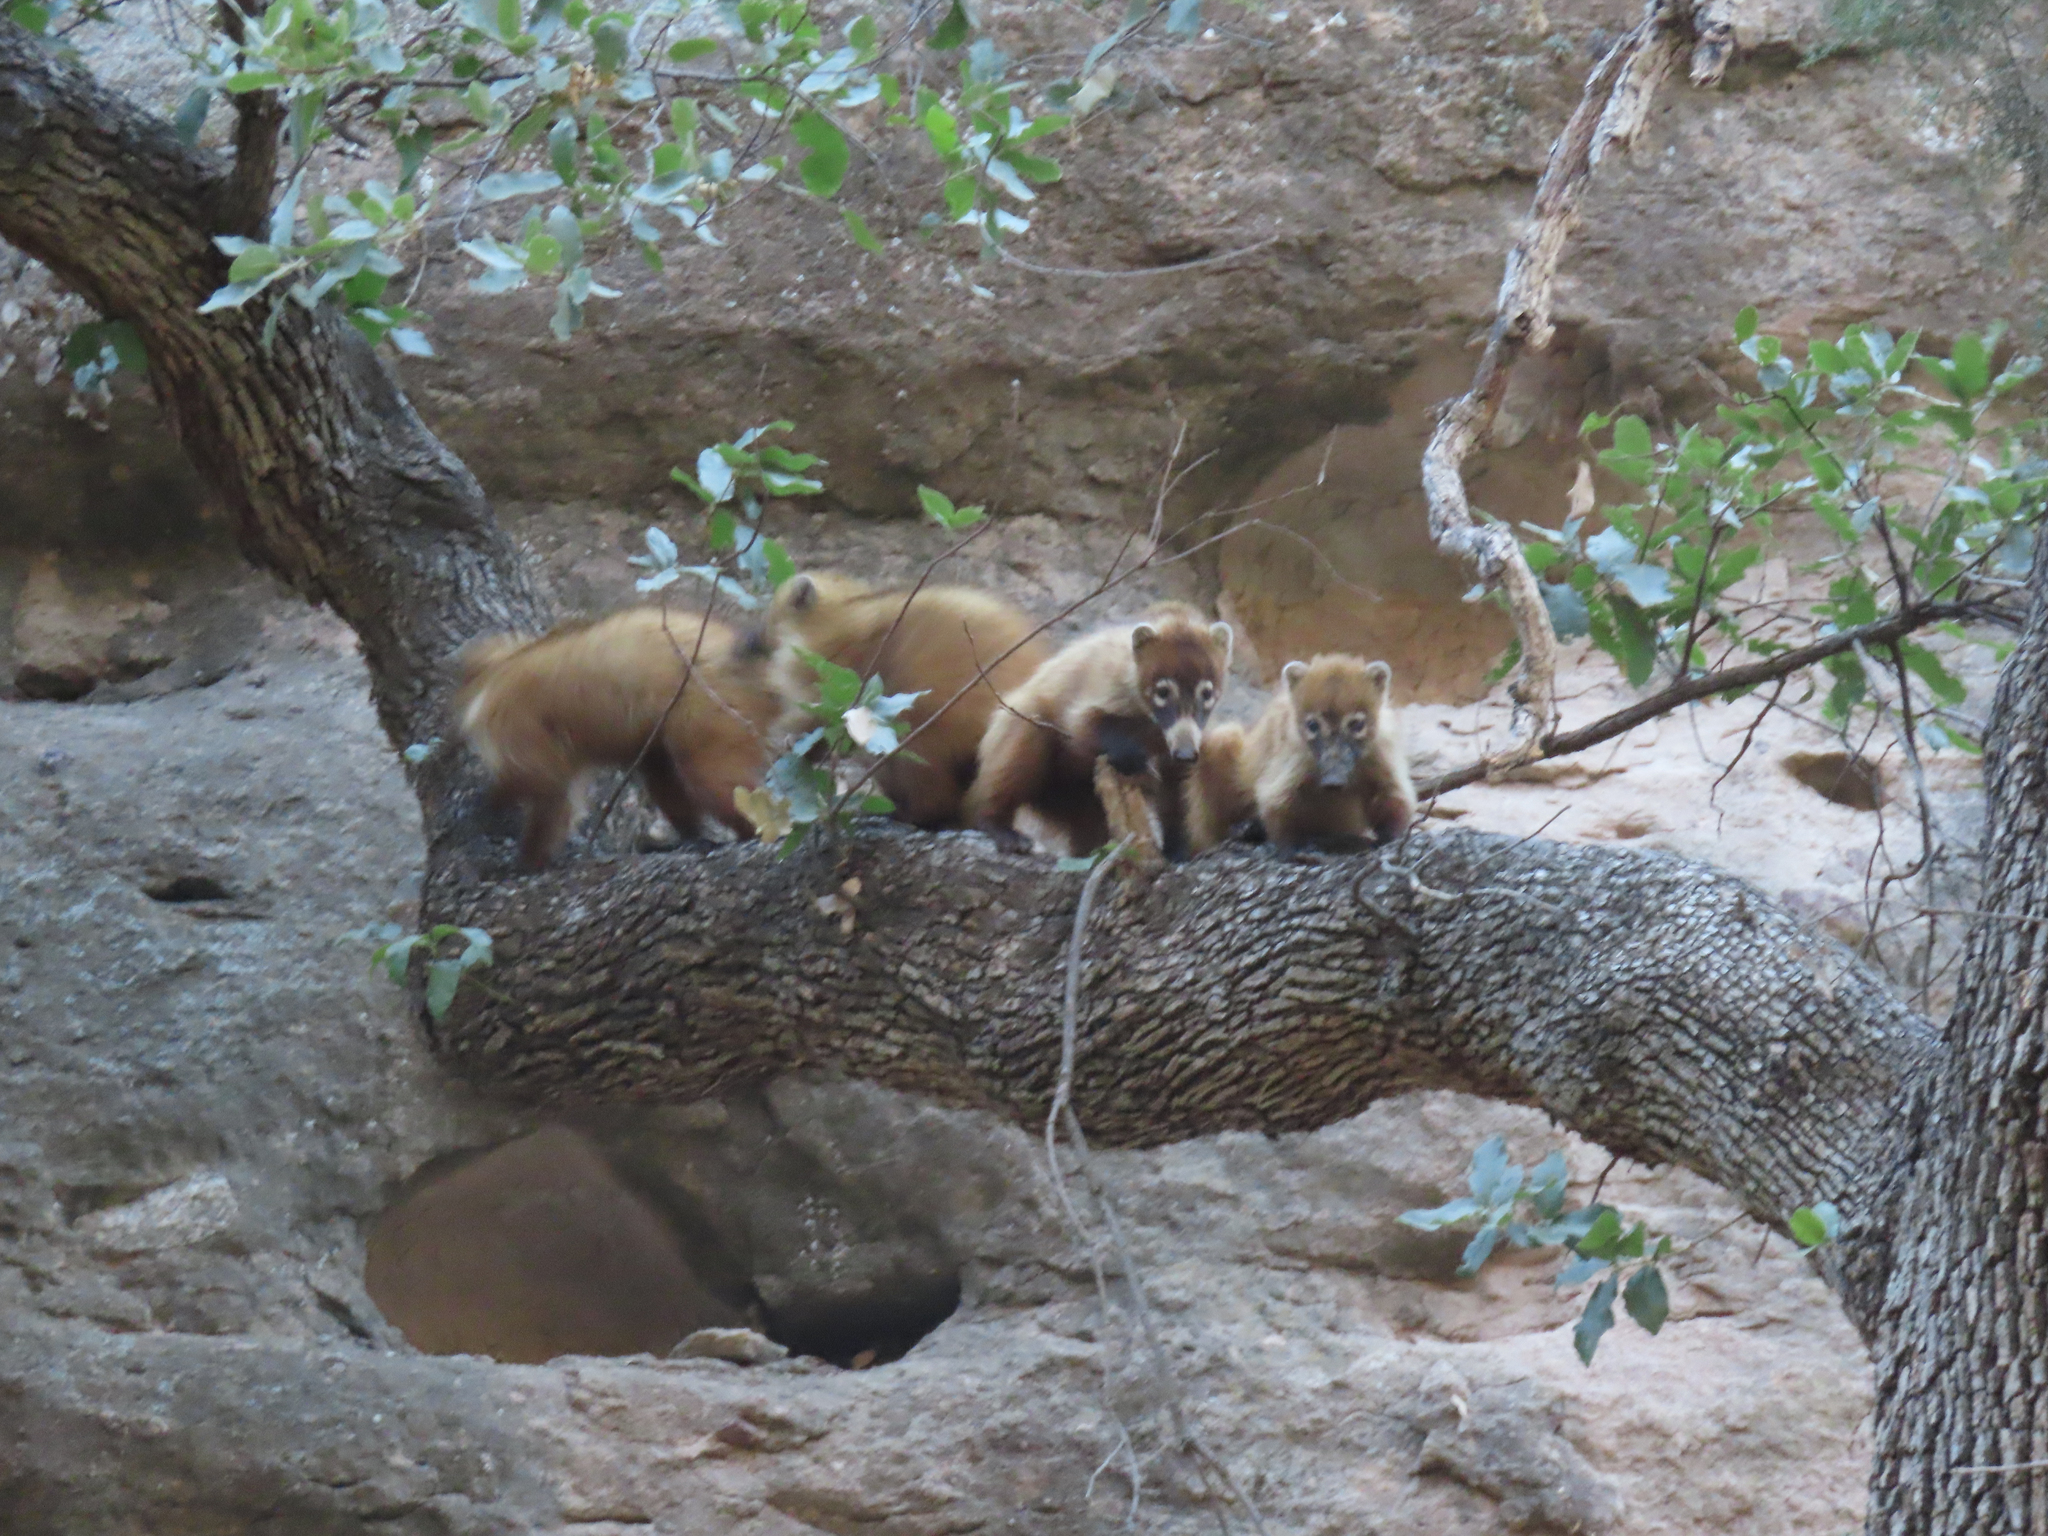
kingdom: Animalia
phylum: Chordata
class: Mammalia
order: Carnivora
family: Procyonidae
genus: Nasua
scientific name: Nasua narica
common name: White-nosed coati
